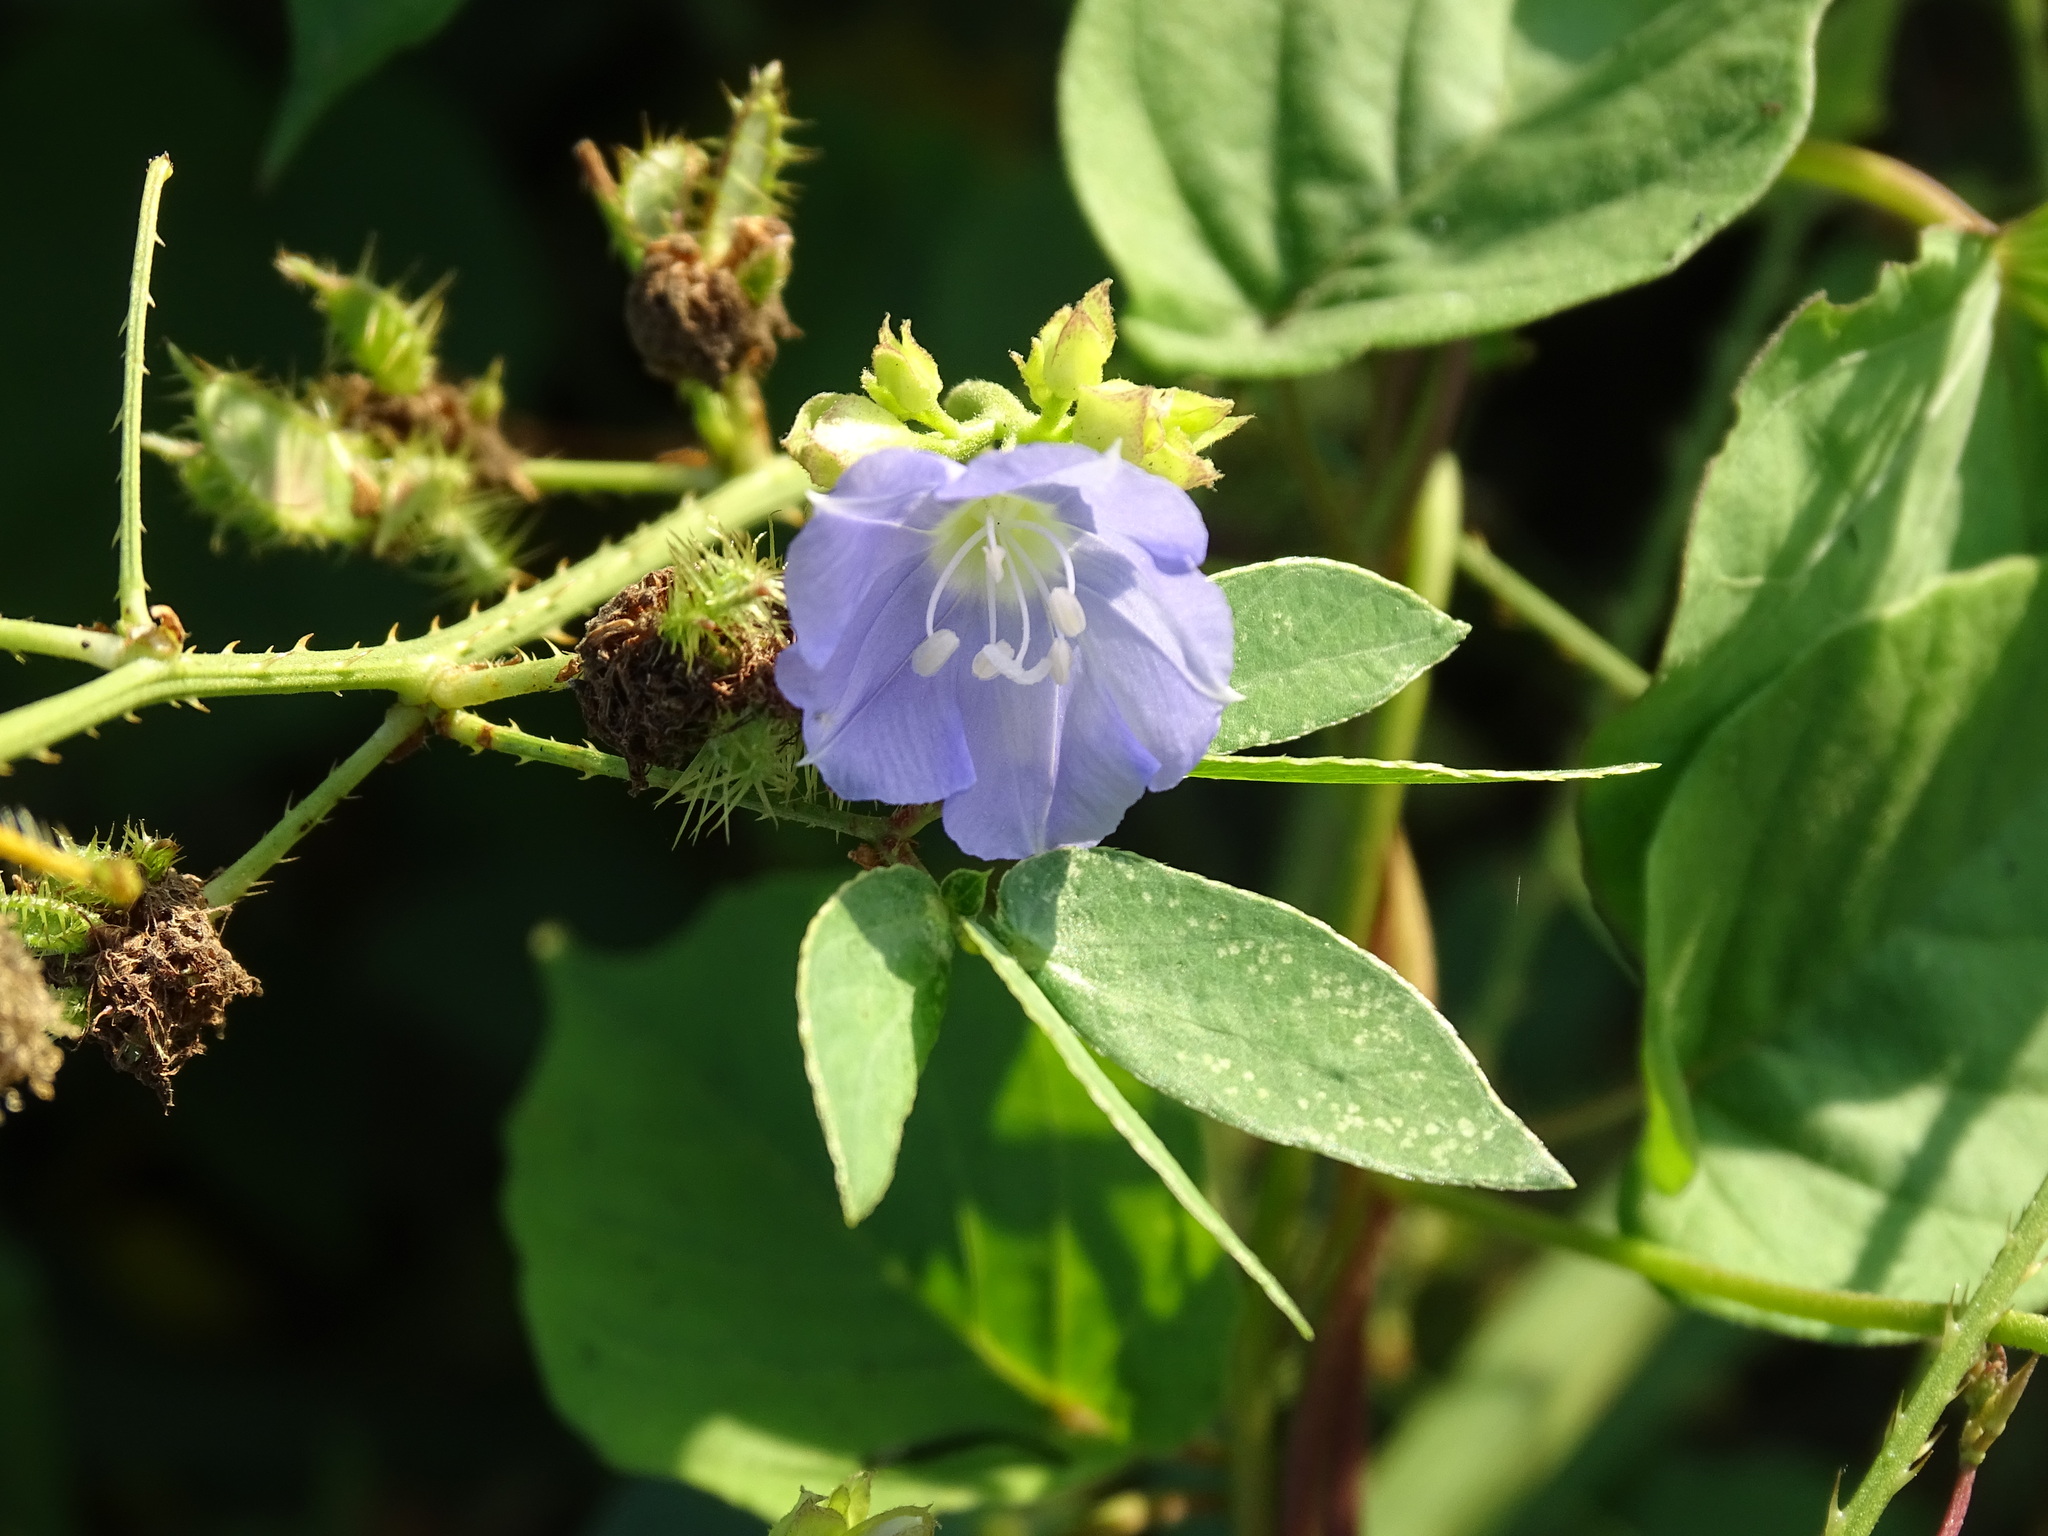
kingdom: Plantae
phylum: Tracheophyta
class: Magnoliopsida
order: Solanales
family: Convolvulaceae
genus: Jacquemontia
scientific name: Jacquemontia oaxacana
